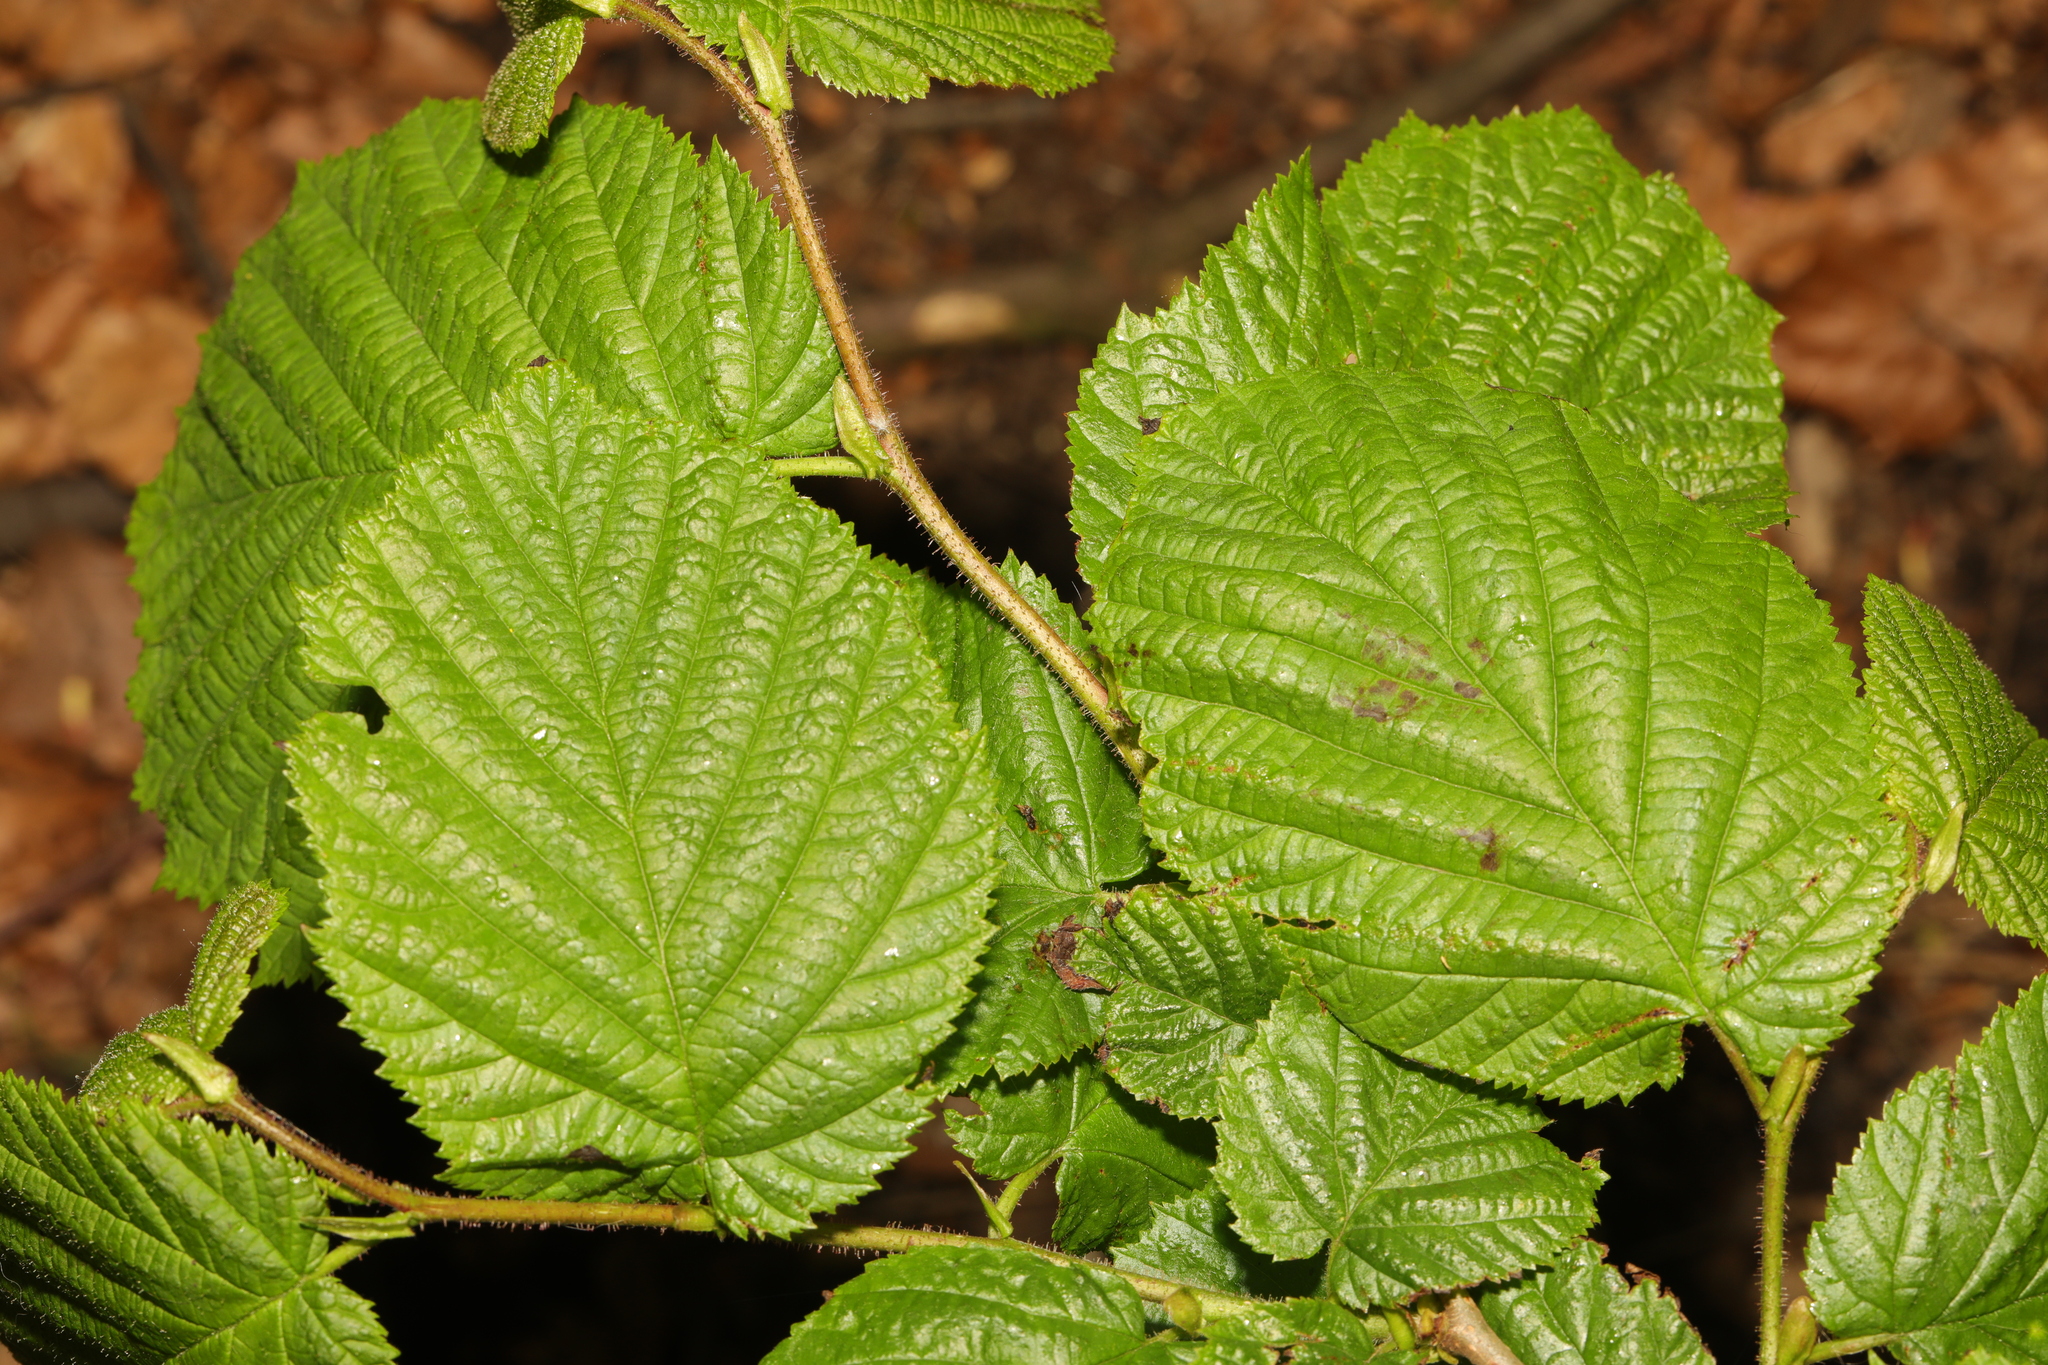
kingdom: Plantae
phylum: Tracheophyta
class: Magnoliopsida
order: Fagales
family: Betulaceae
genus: Corylus
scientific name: Corylus avellana
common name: European hazel
